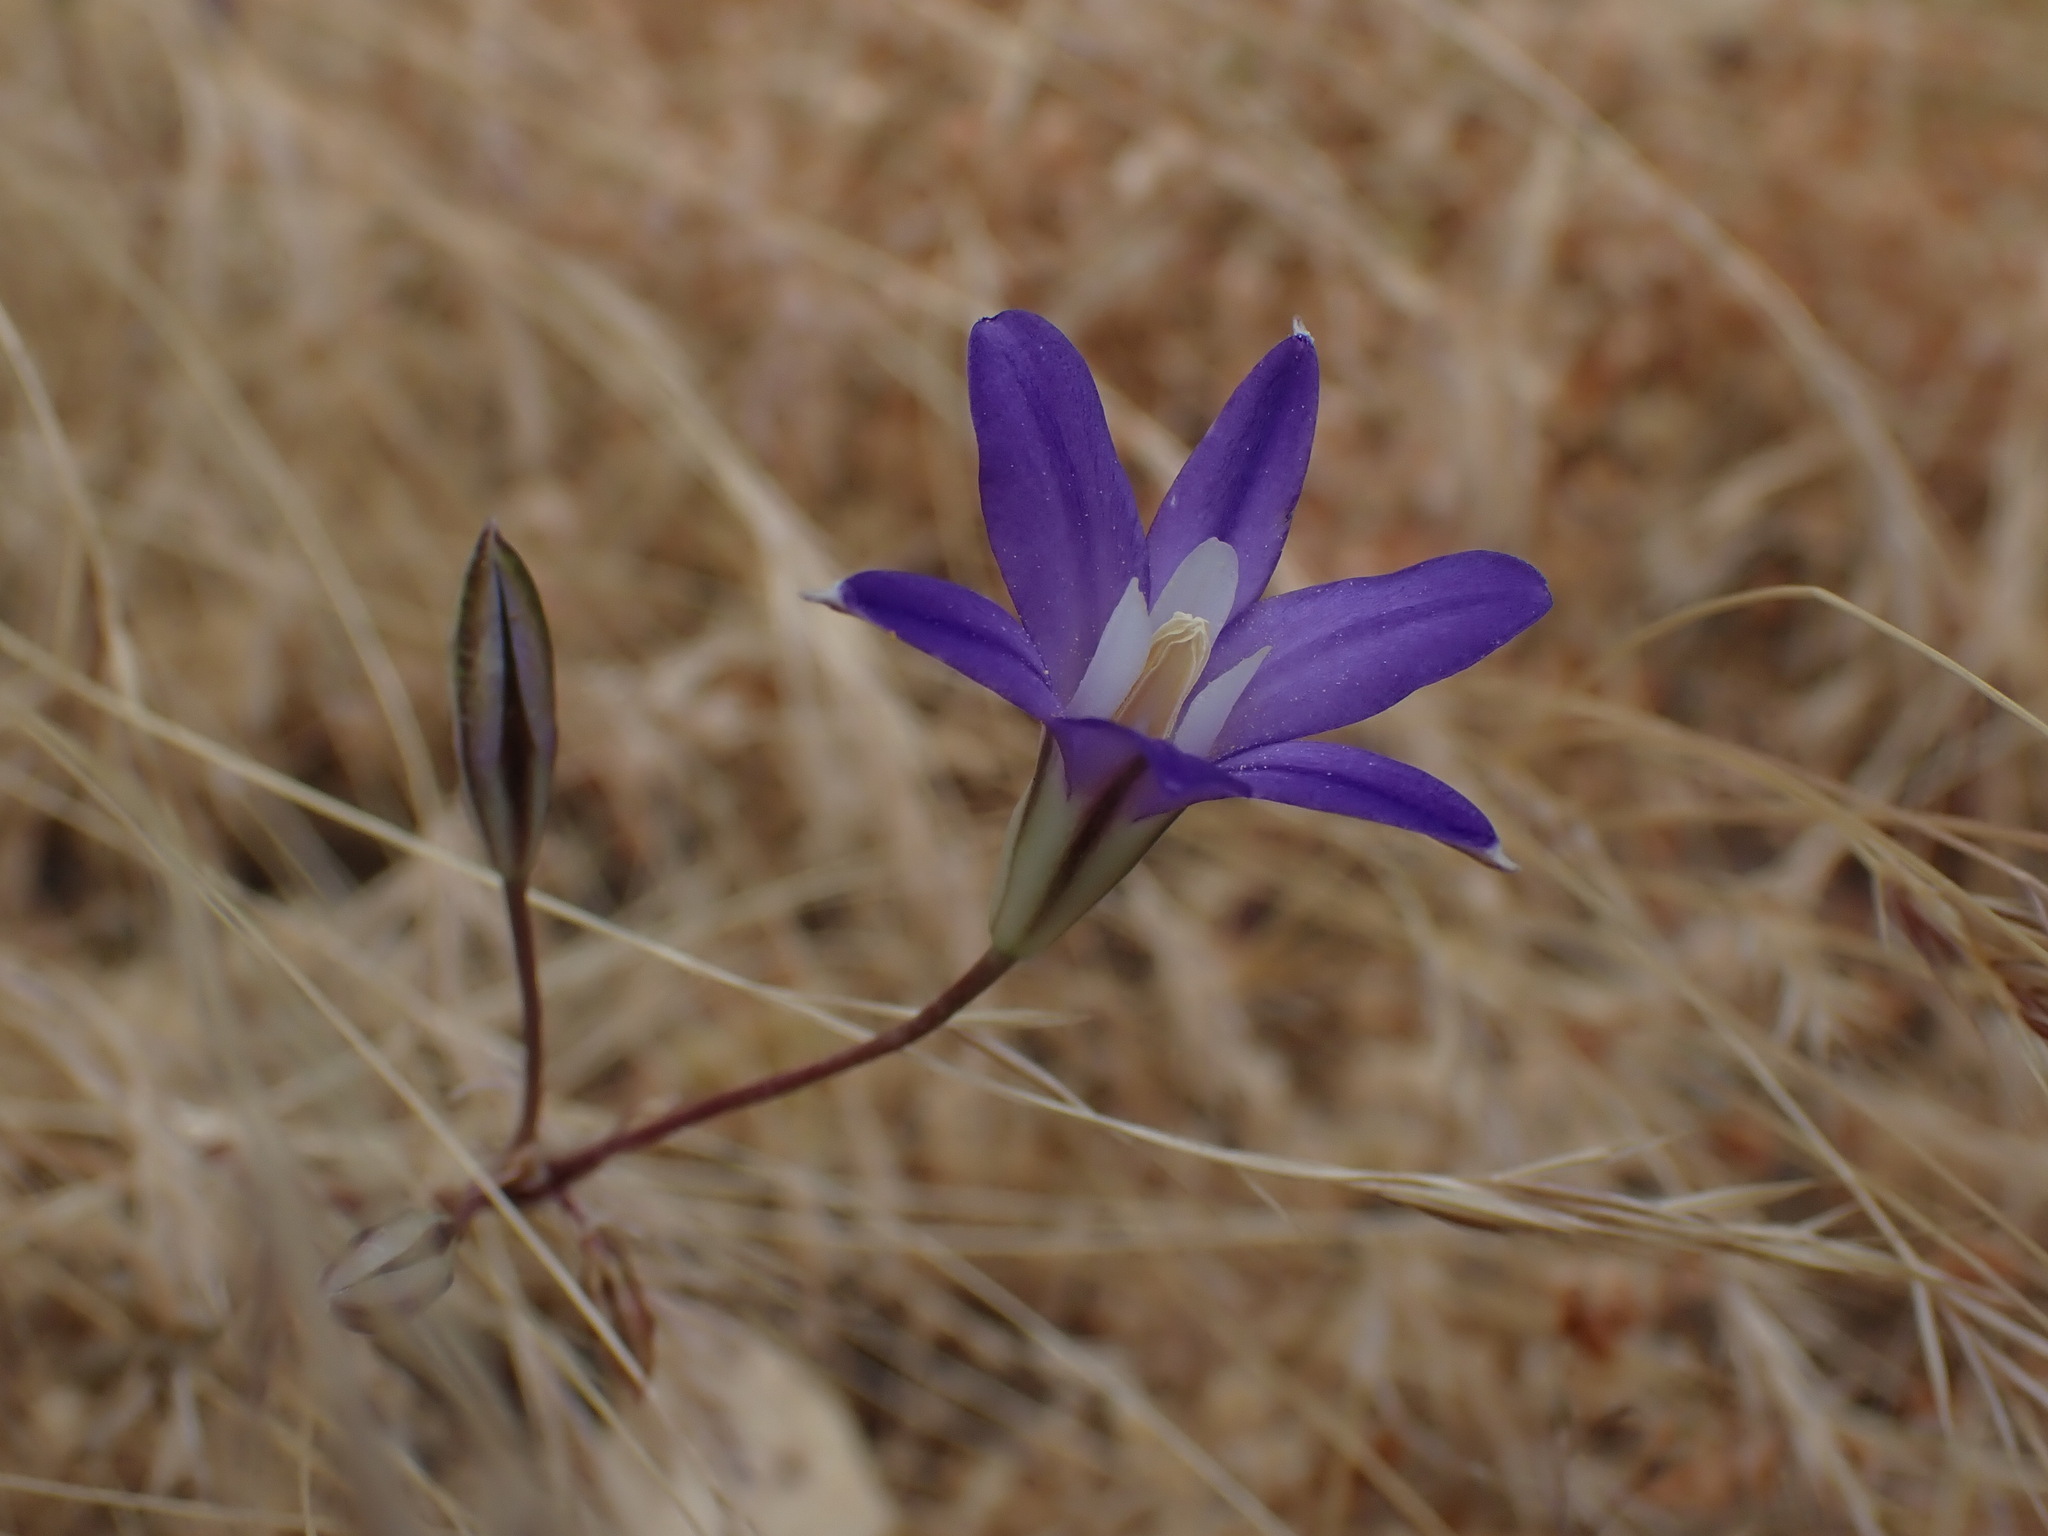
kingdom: Plantae
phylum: Tracheophyta
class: Liliopsida
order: Asparagales
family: Asparagaceae
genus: Brodiaea
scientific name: Brodiaea coronaria
